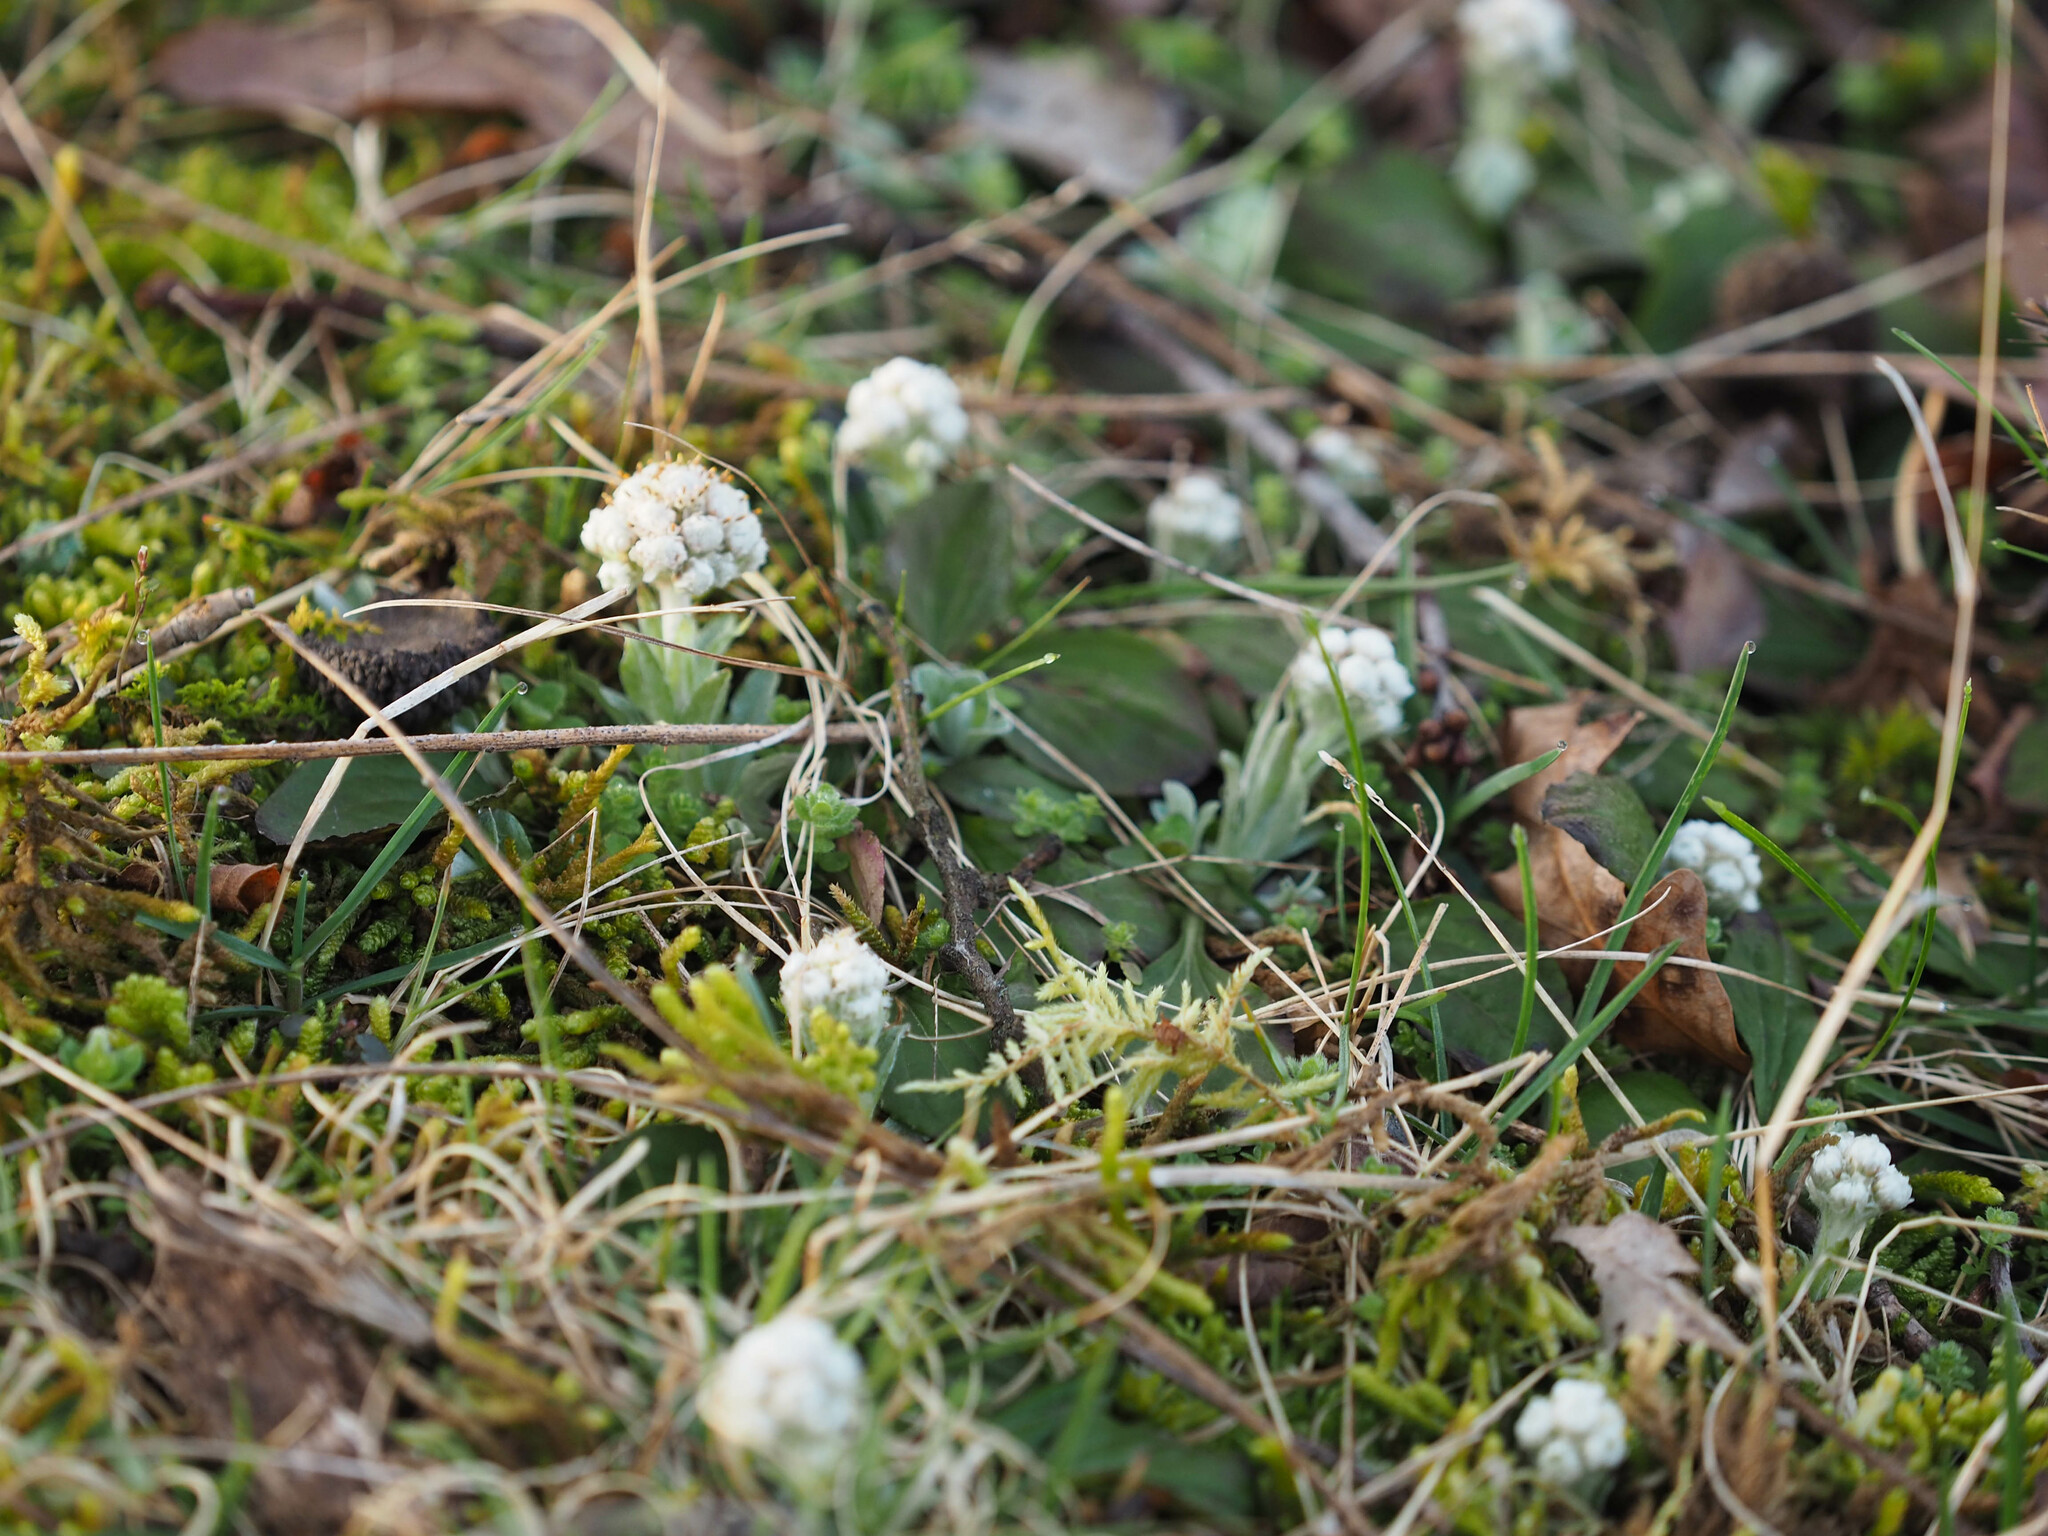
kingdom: Plantae
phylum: Tracheophyta
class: Magnoliopsida
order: Asterales
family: Asteraceae
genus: Antennaria
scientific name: Antennaria neglecta
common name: Field pussytoes
